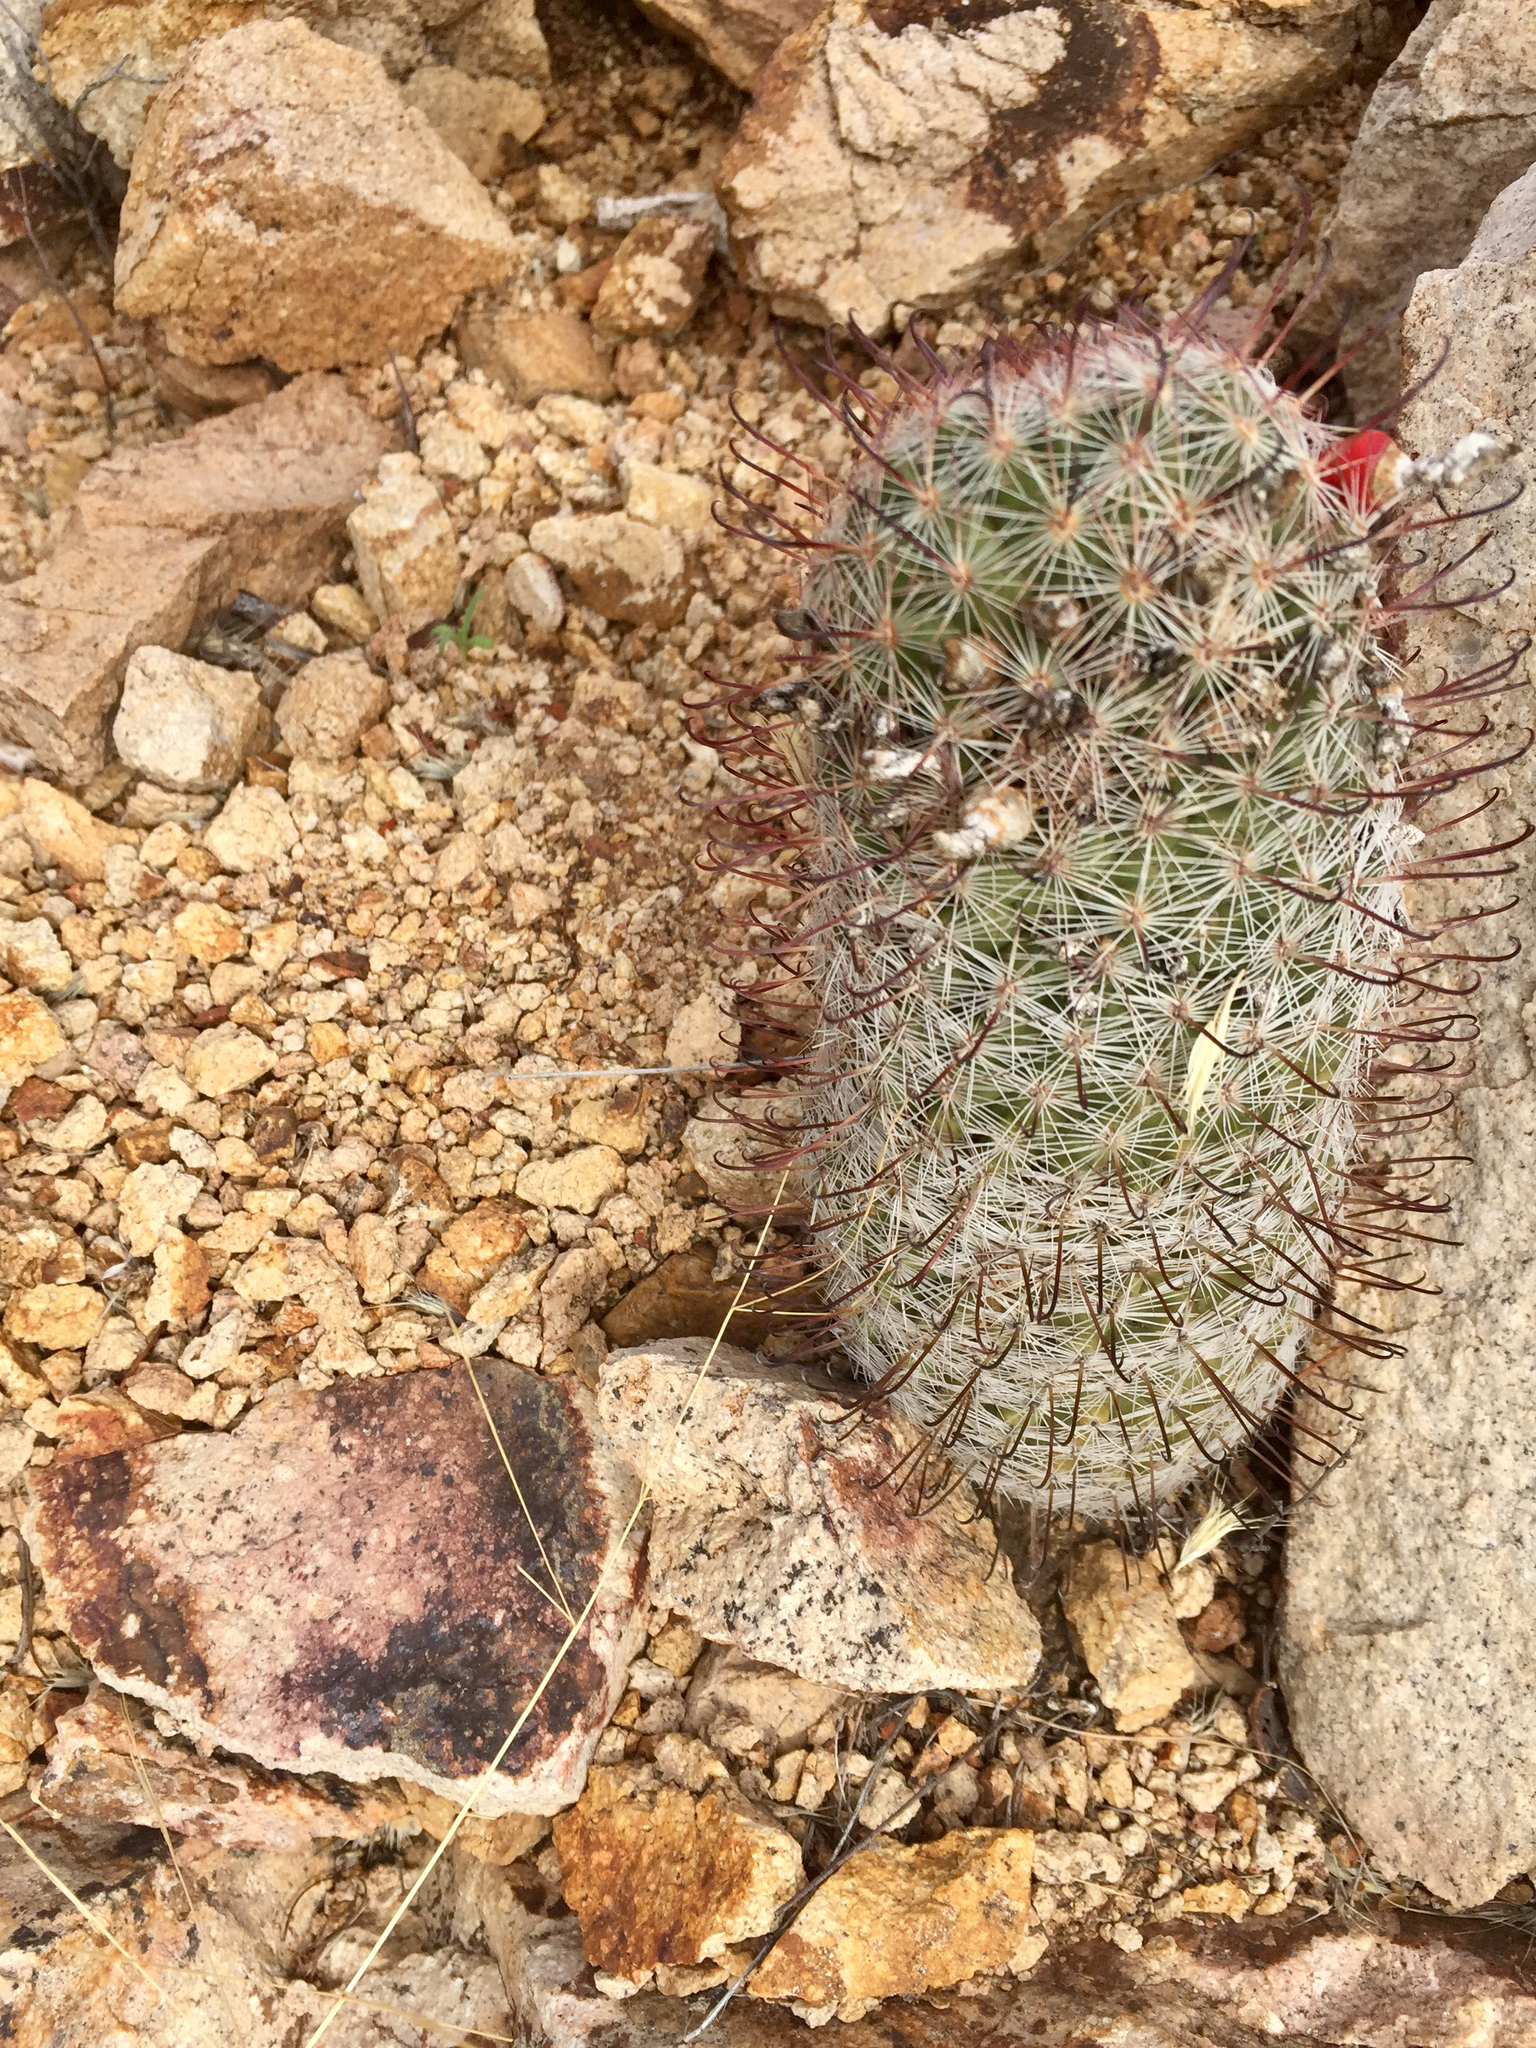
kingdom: Plantae
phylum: Tracheophyta
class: Magnoliopsida
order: Caryophyllales
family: Cactaceae
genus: Cochemiea
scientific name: Cochemiea grahamii
